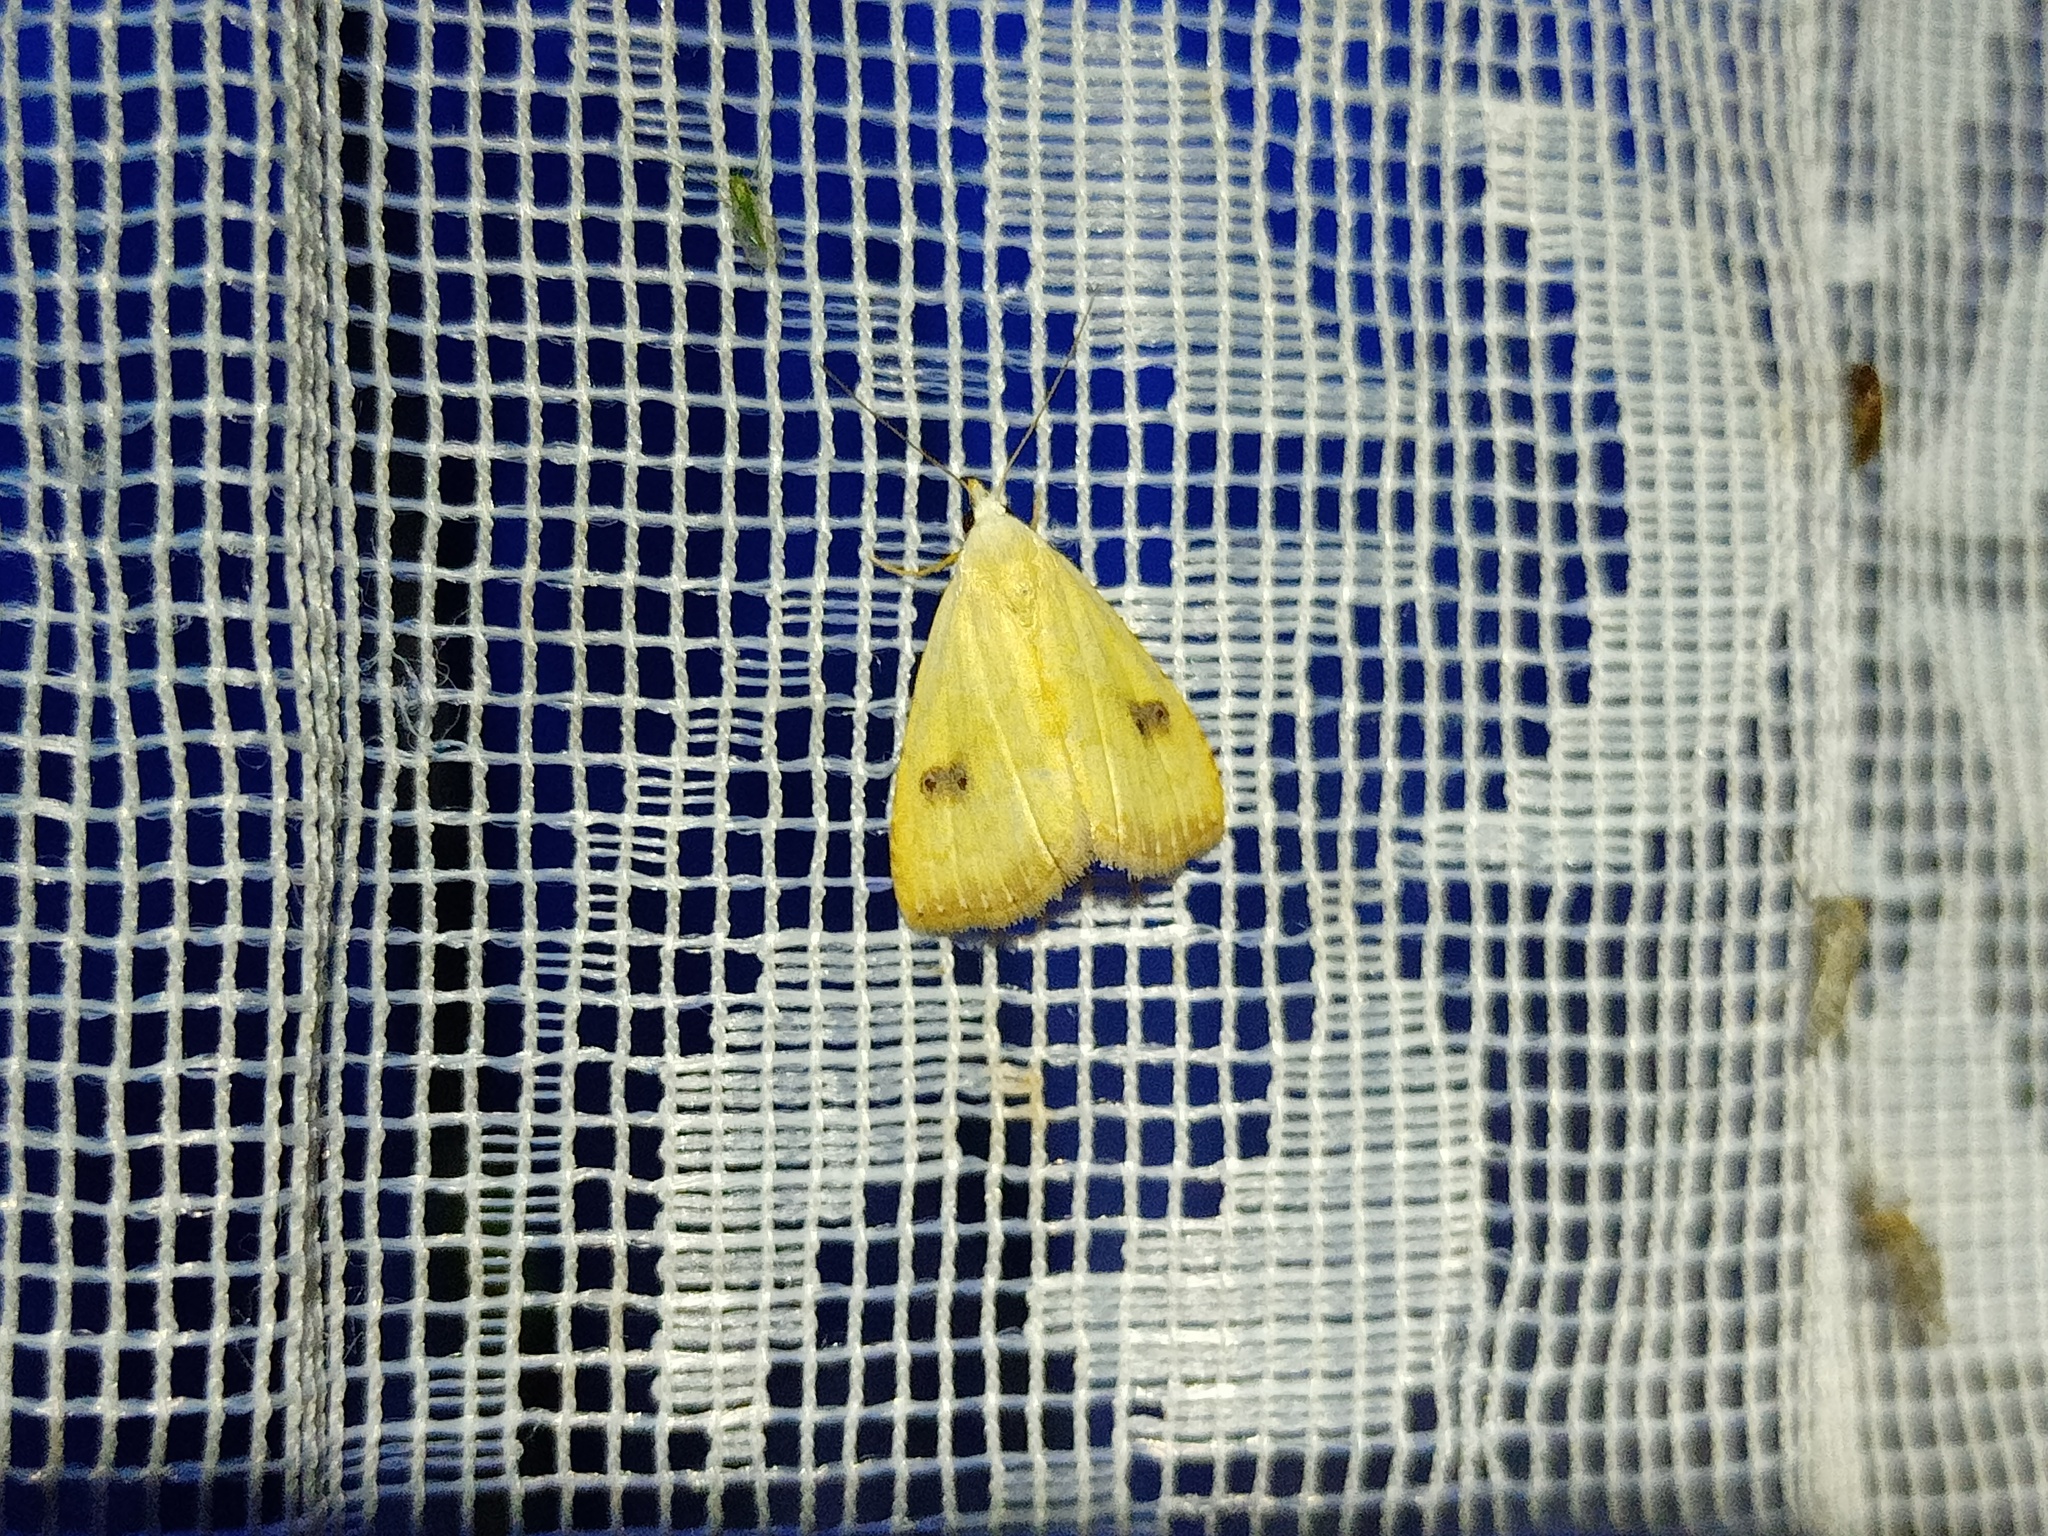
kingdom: Animalia
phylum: Arthropoda
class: Insecta
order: Lepidoptera
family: Erebidae
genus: Rivula
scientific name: Rivula sericealis
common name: Straw dot
